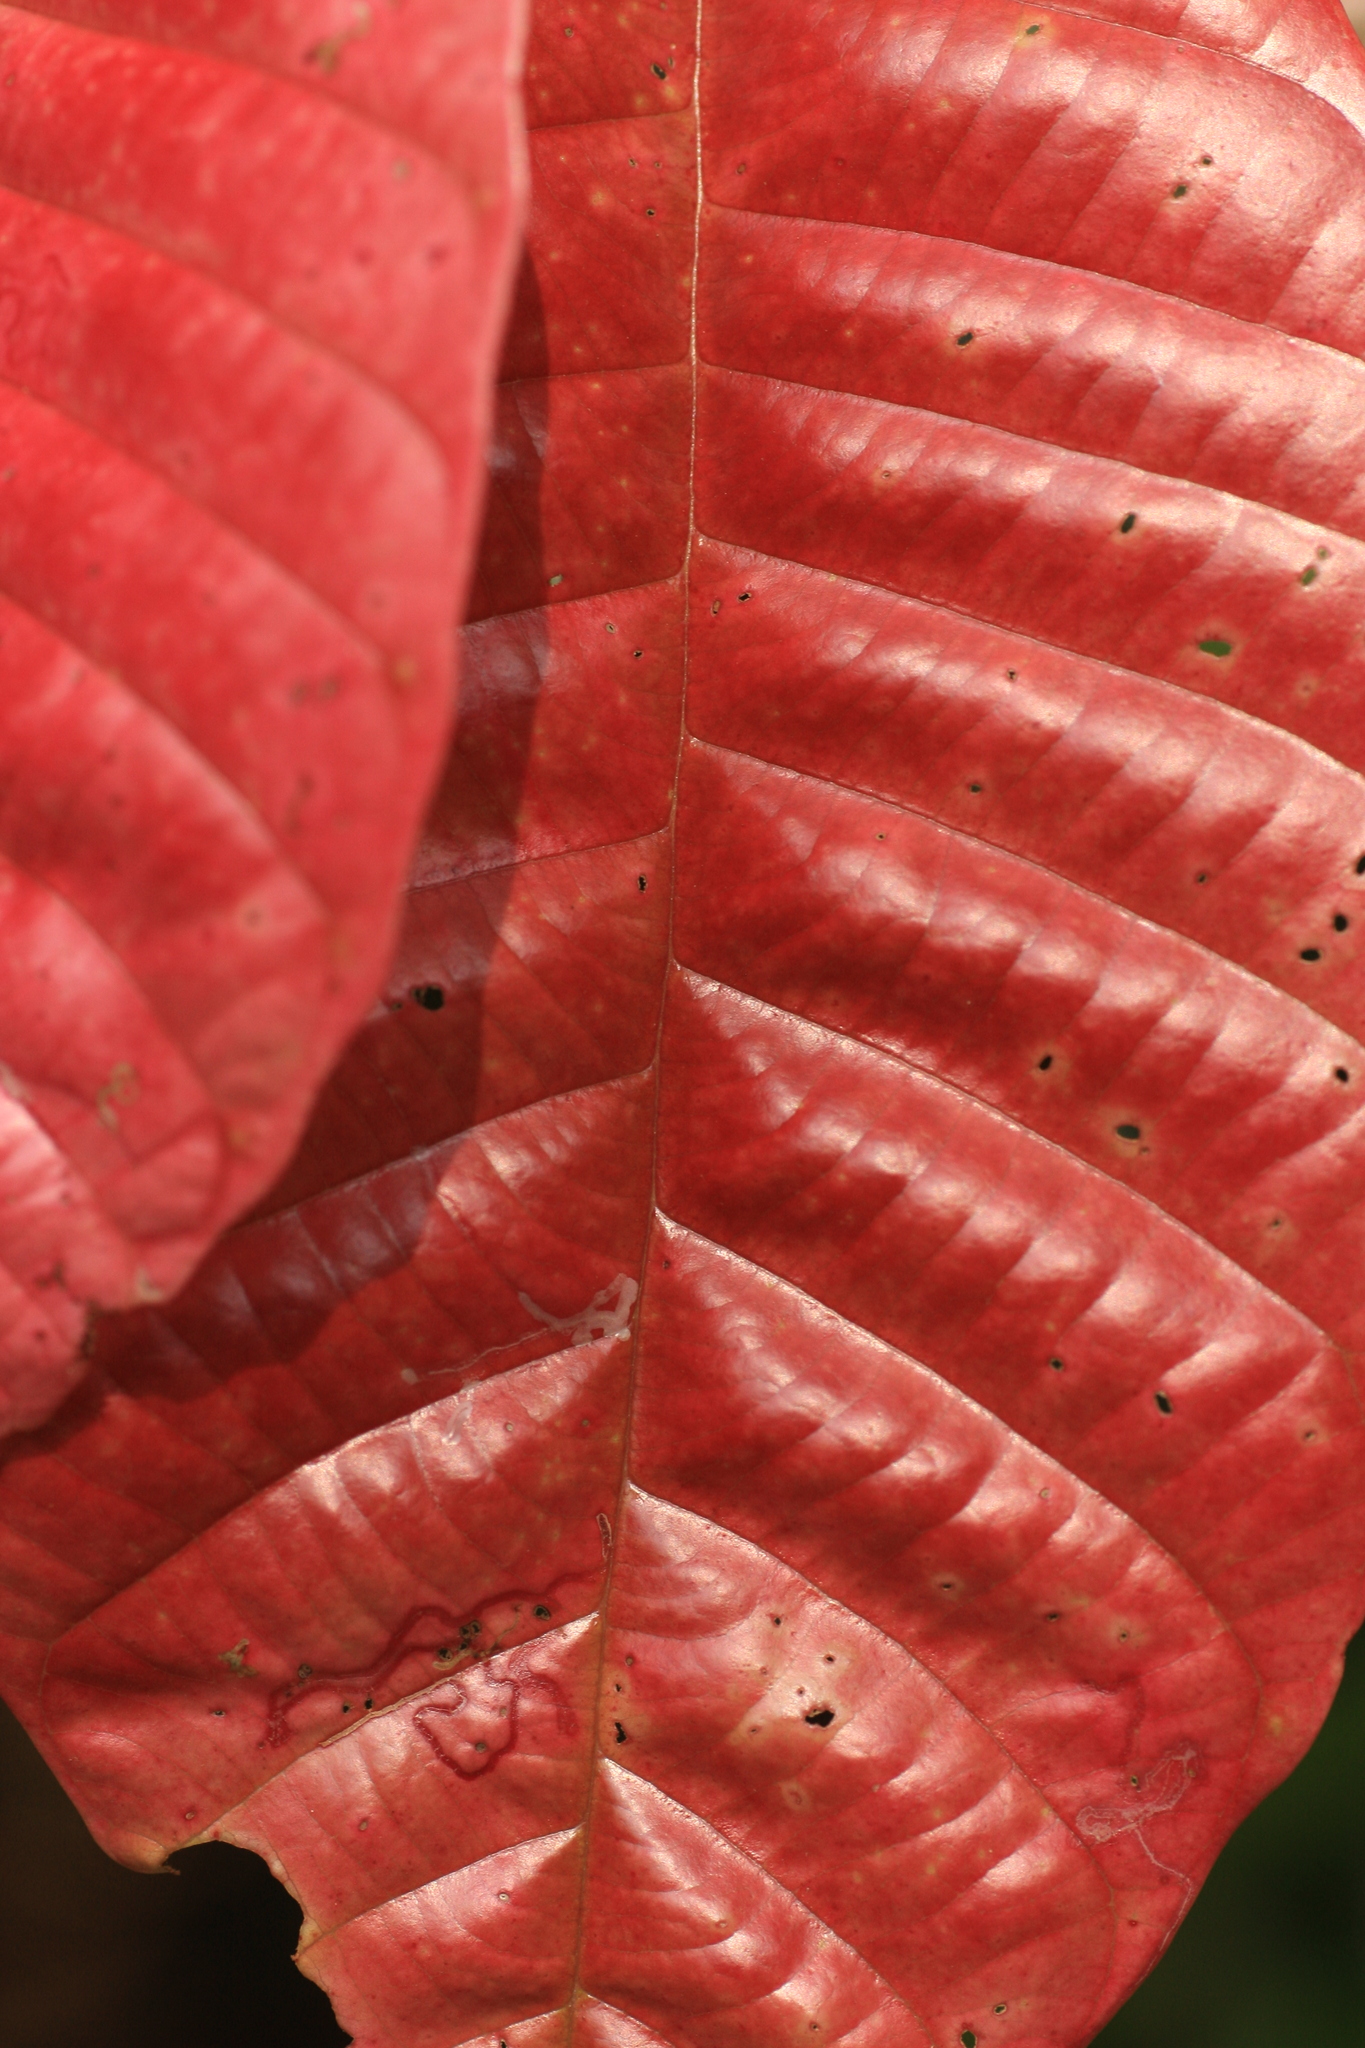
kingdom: Plantae
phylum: Tracheophyta
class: Magnoliopsida
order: Malvales
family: Dipterocarpaceae
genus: Vateria
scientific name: Vateria indica
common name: White dammar
